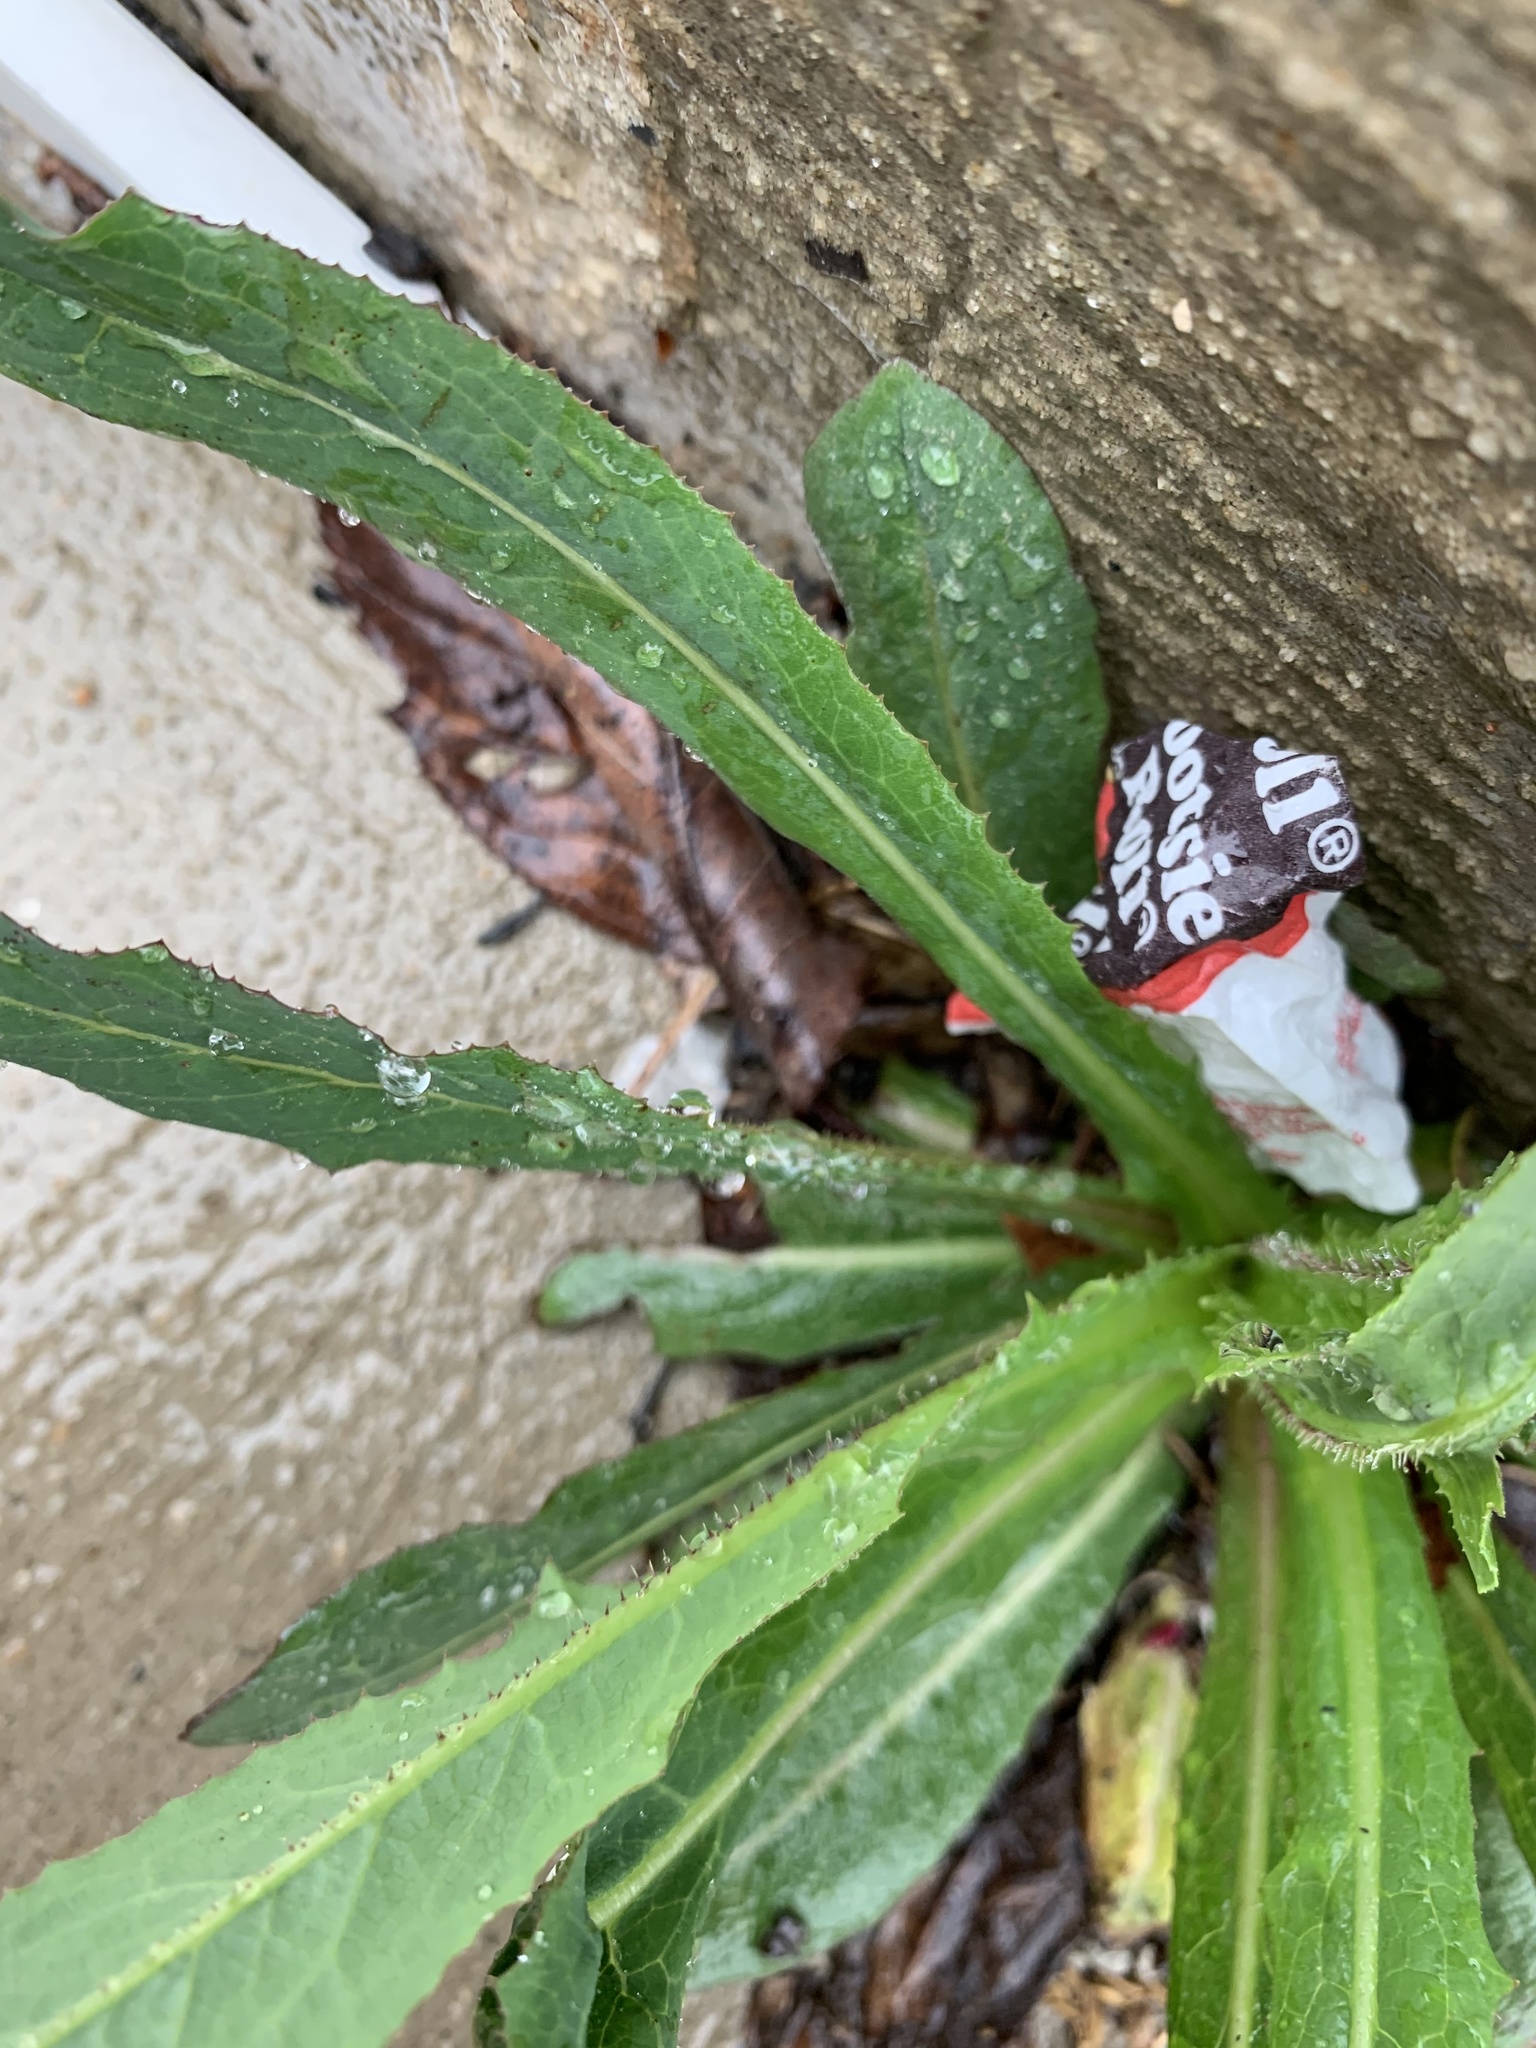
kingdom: Plantae
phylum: Tracheophyta
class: Magnoliopsida
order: Asterales
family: Asteraceae
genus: Lactuca
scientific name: Lactuca serriola
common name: Prickly lettuce
